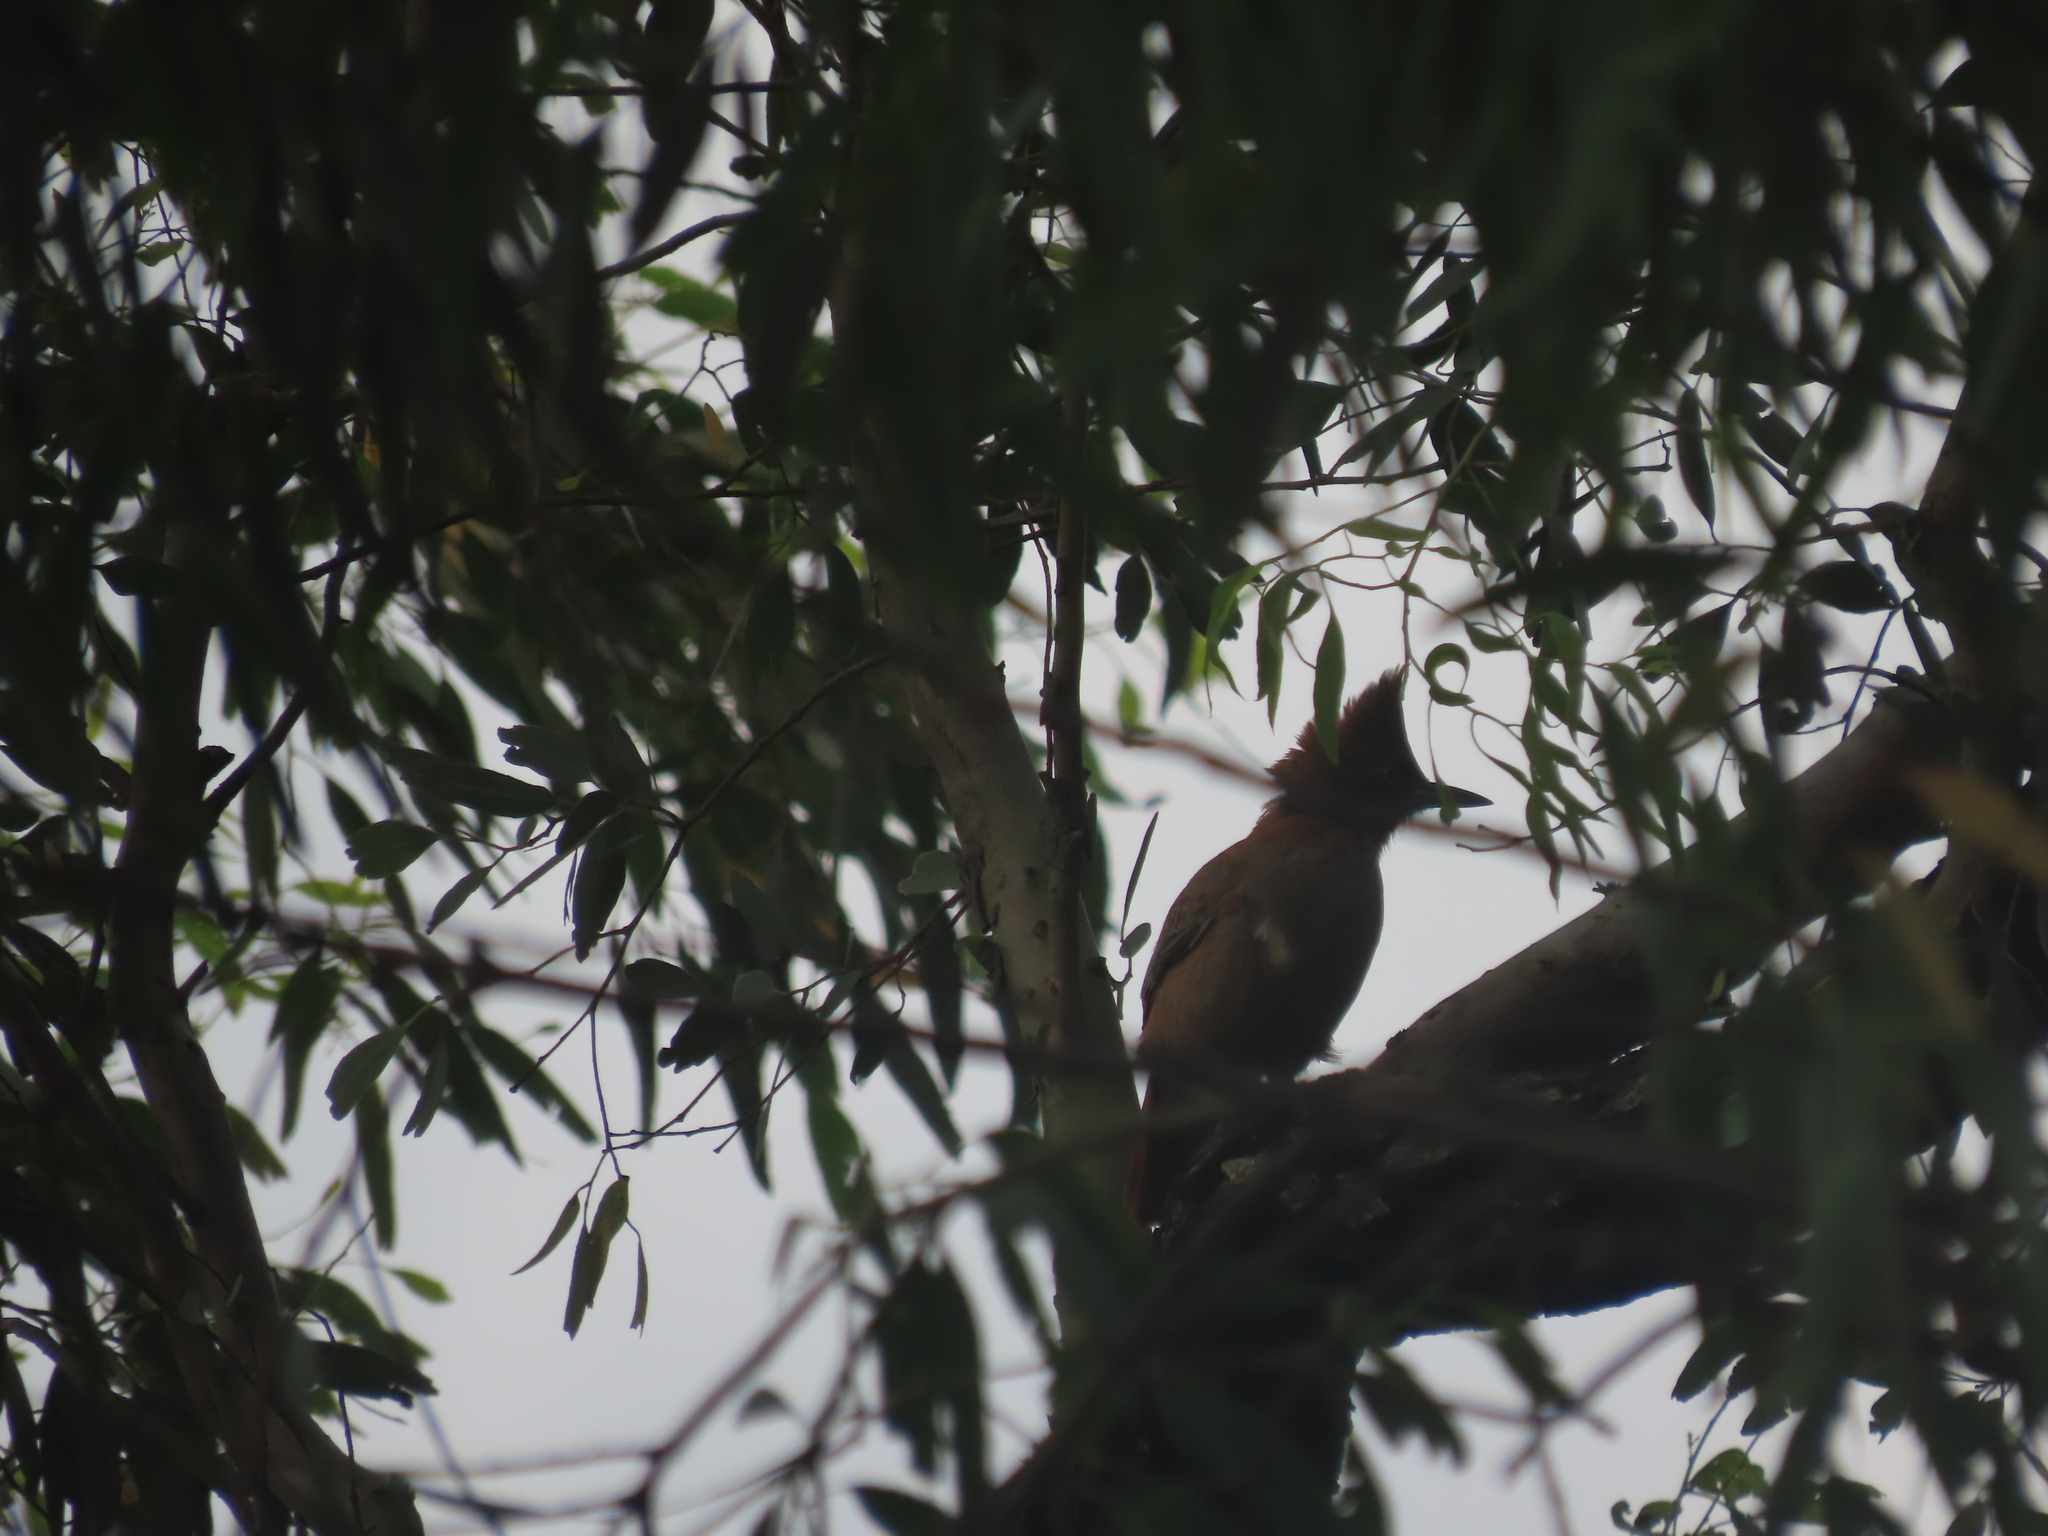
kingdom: Animalia
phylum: Chordata
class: Aves
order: Passeriformes
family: Furnariidae
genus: Pseudoseisura
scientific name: Pseudoseisura lophotes
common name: Brown cacholote
